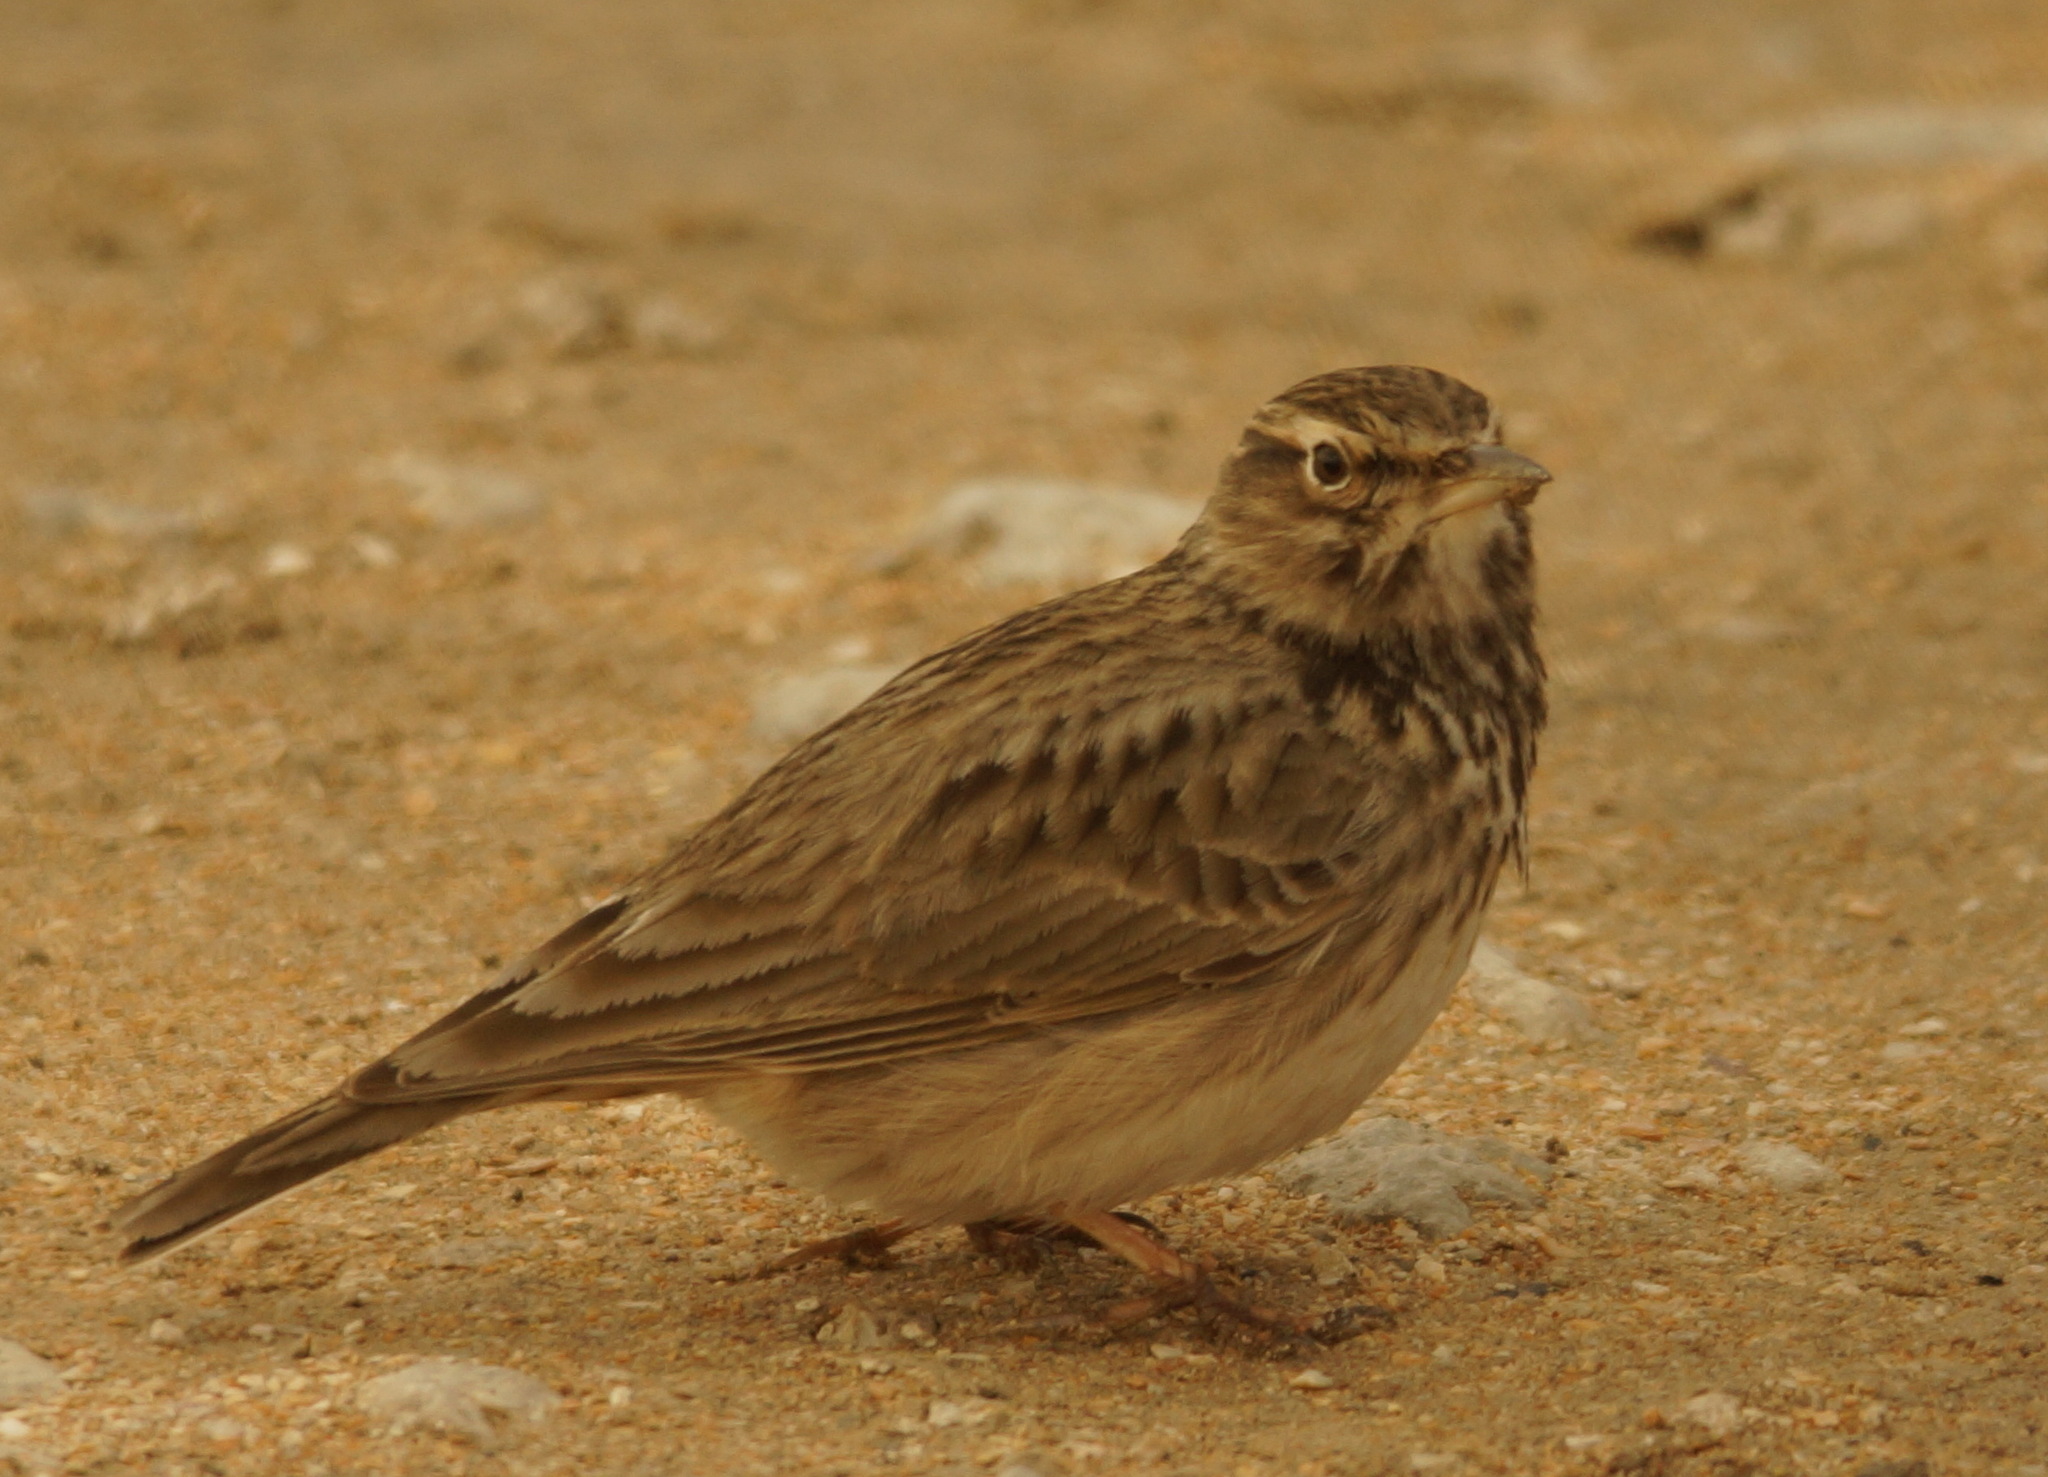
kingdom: Animalia
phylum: Chordata
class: Aves
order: Passeriformes
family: Alaudidae
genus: Galerida
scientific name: Galerida cristata
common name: Crested lark
